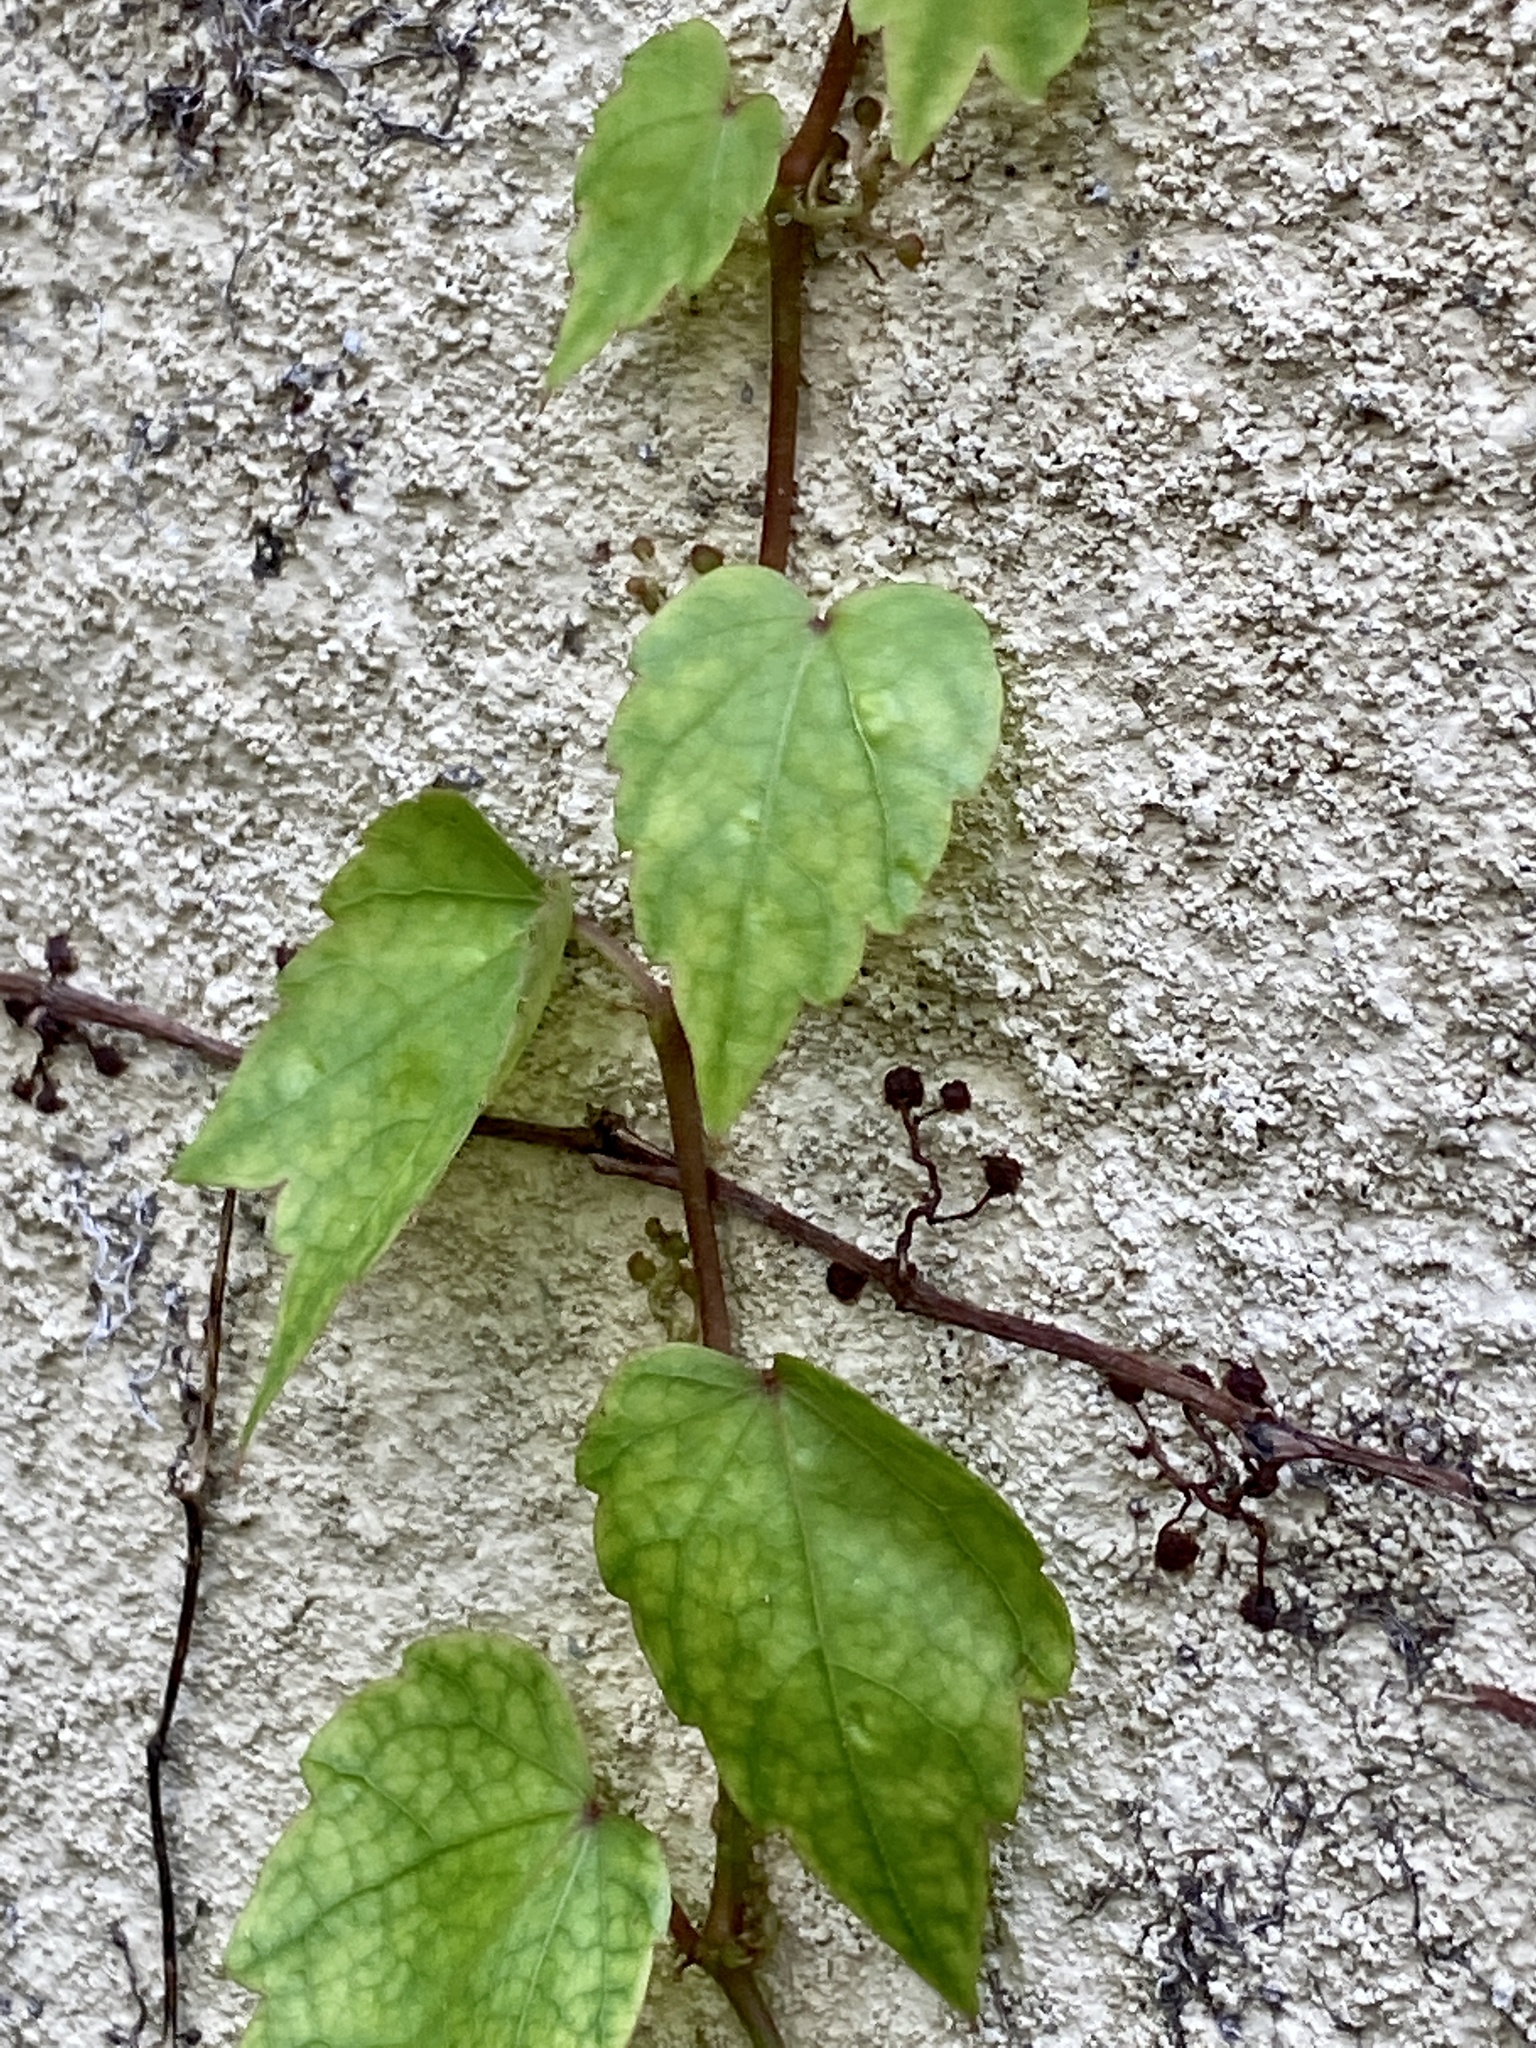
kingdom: Plantae
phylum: Tracheophyta
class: Magnoliopsida
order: Vitales
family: Vitaceae
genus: Parthenocissus
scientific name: Parthenocissus tricuspidata
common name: Boston ivy
